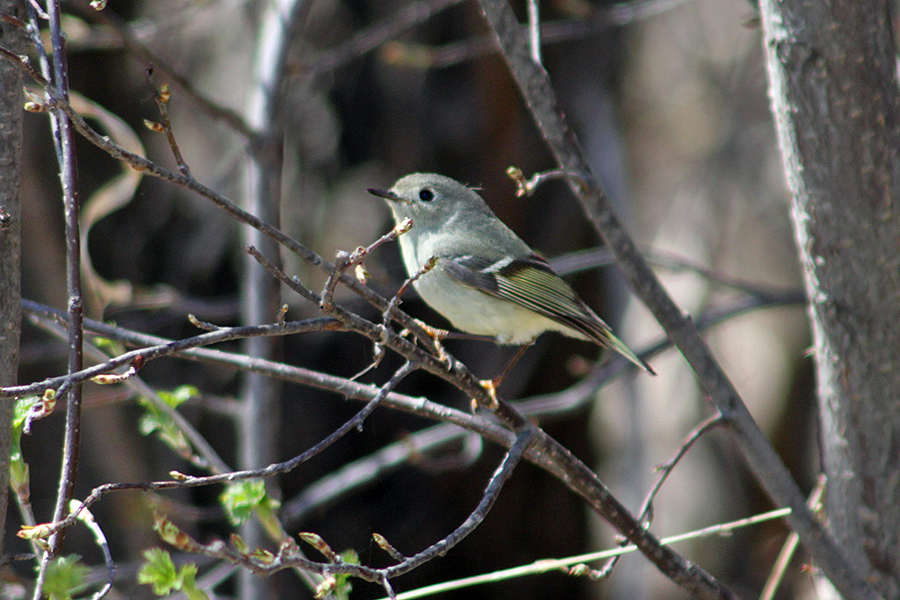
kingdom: Animalia
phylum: Chordata
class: Aves
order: Passeriformes
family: Regulidae
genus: Regulus
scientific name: Regulus calendula
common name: Ruby-crowned kinglet
